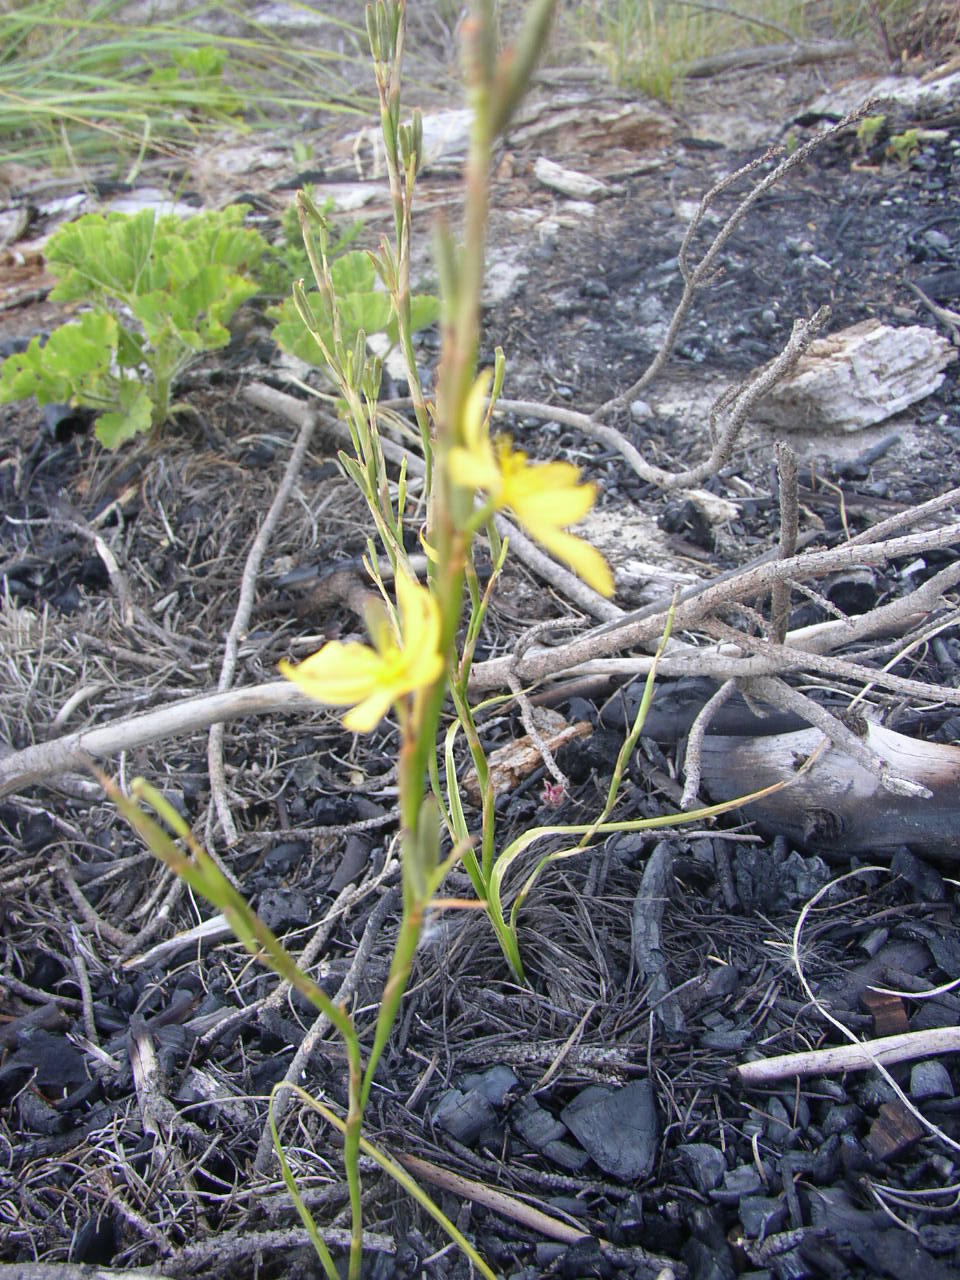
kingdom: Plantae
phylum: Tracheophyta
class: Liliopsida
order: Asparagales
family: Iridaceae
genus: Moraea
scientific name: Moraea lewisiae
